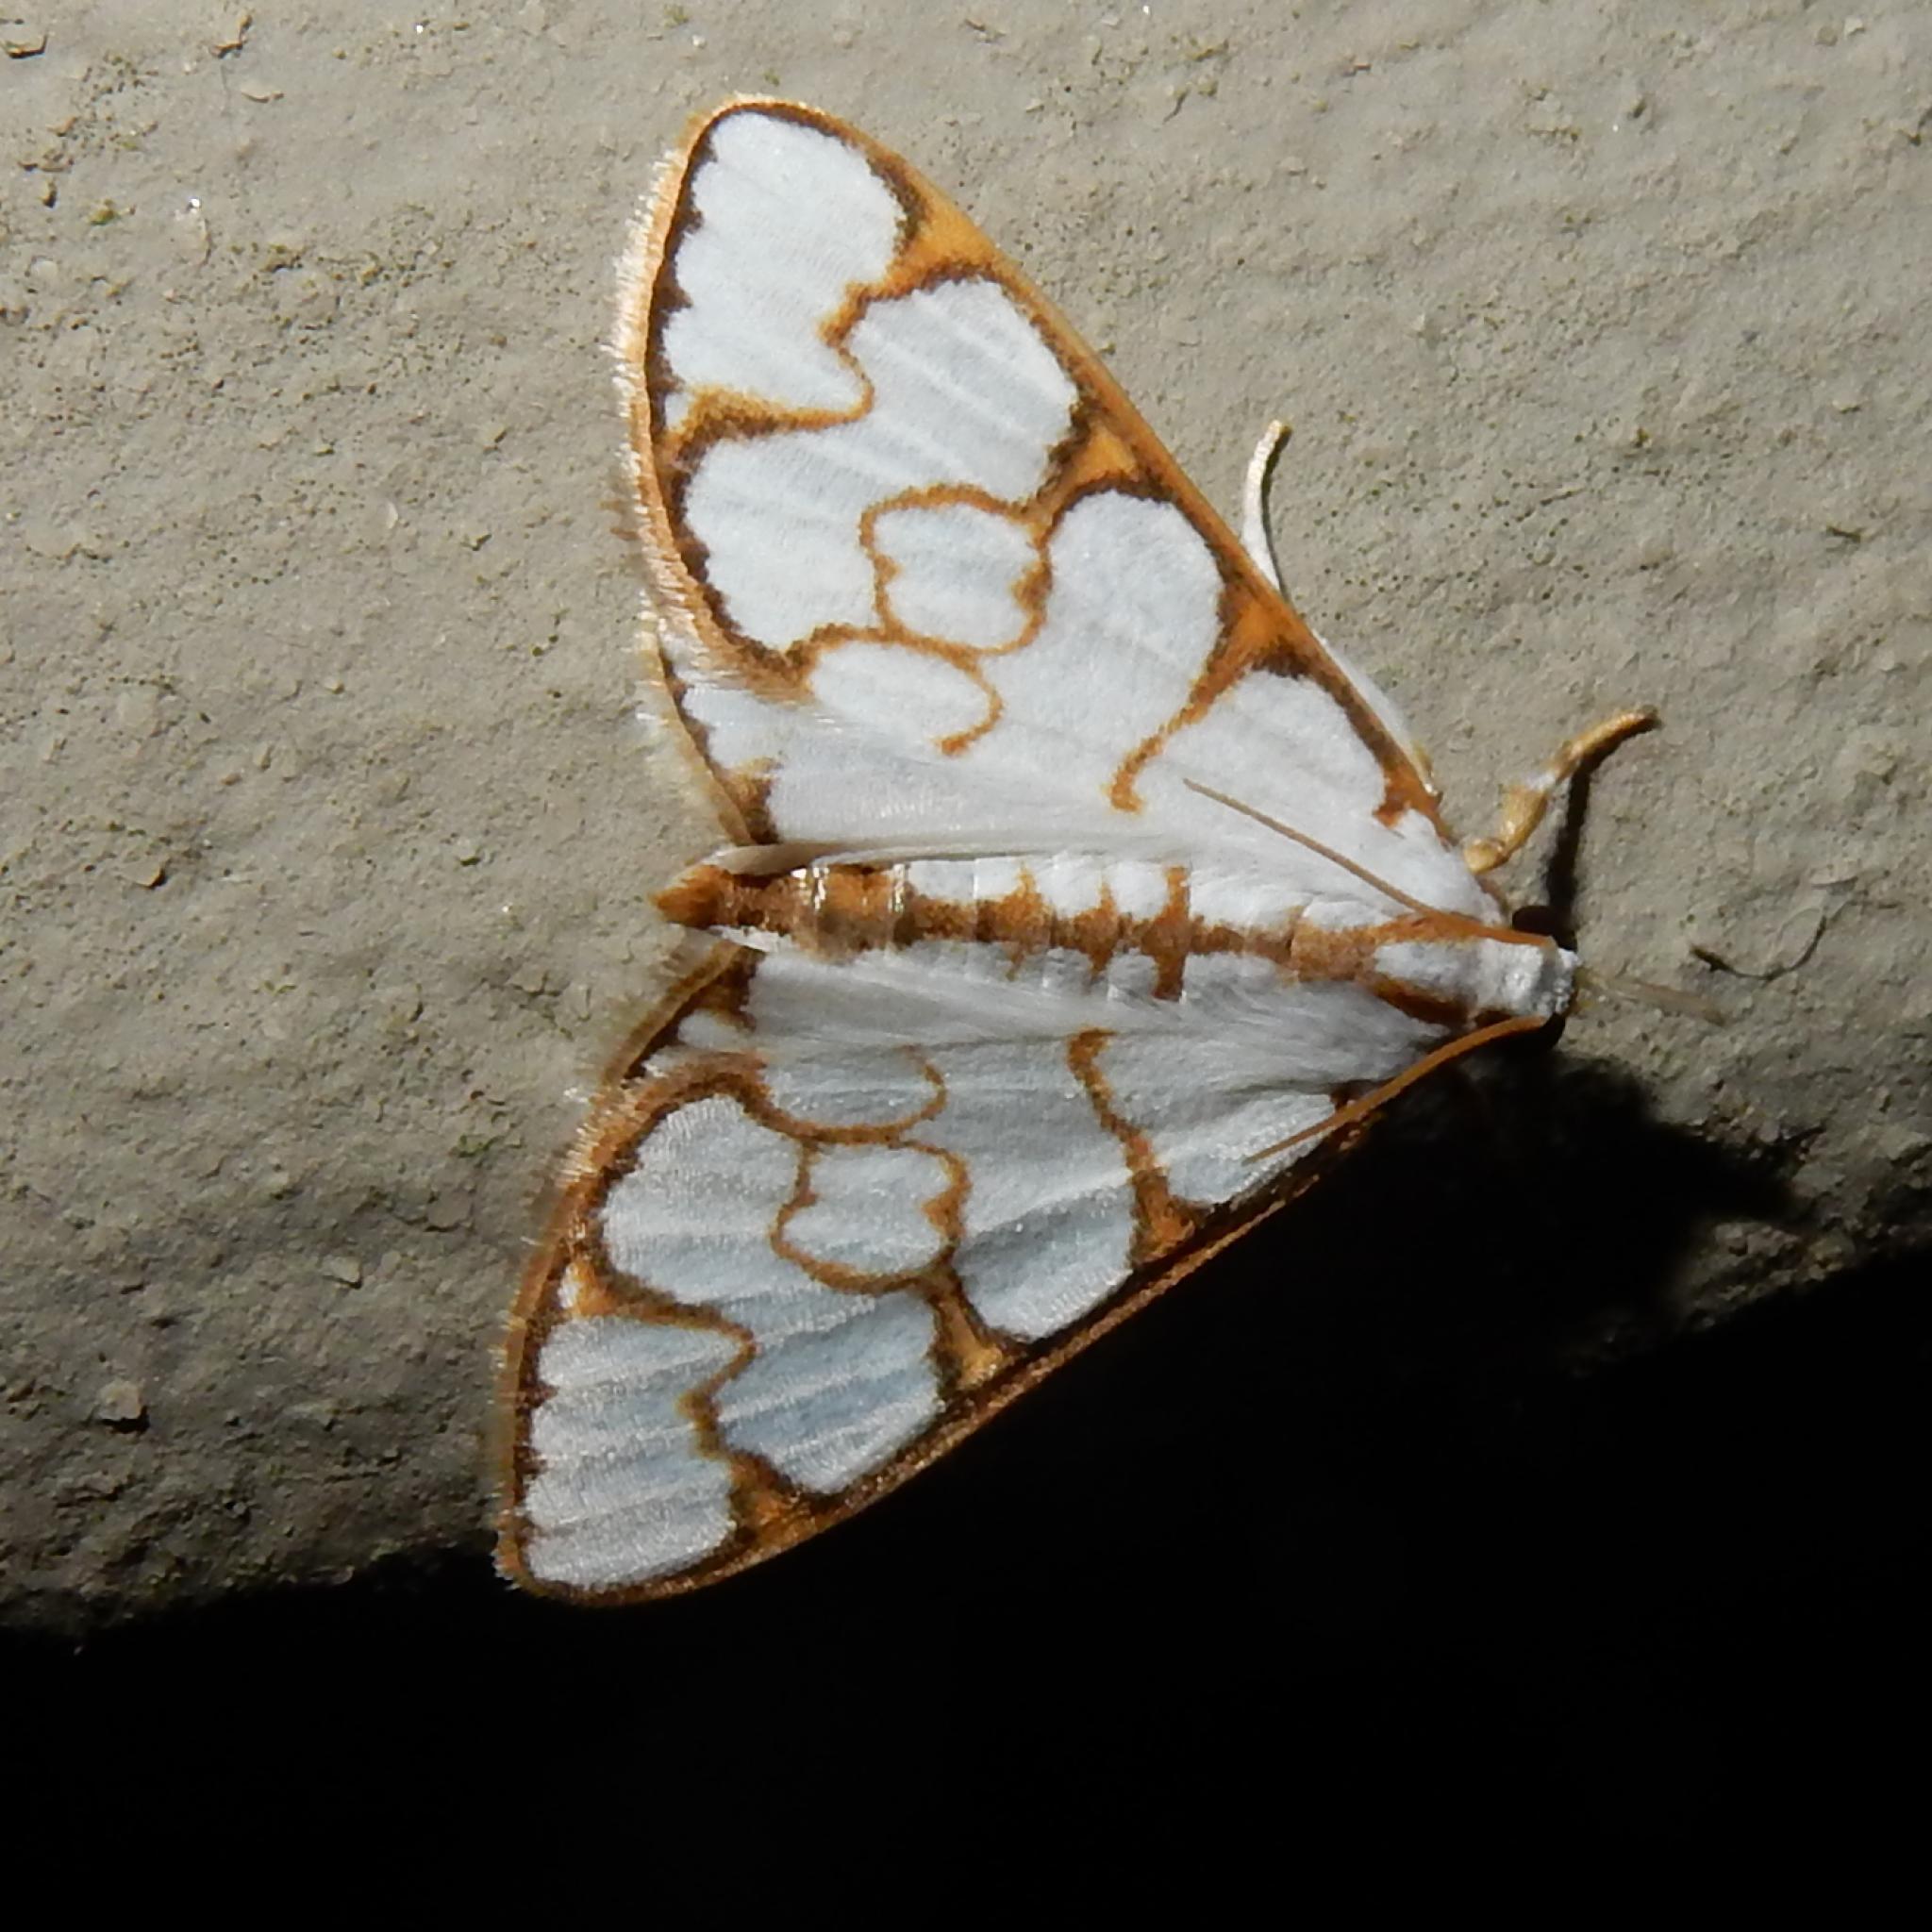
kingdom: Animalia
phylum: Arthropoda
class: Insecta
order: Lepidoptera
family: Crambidae
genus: Cirrhochrista
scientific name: Cirrhochrista grabczewskyi
